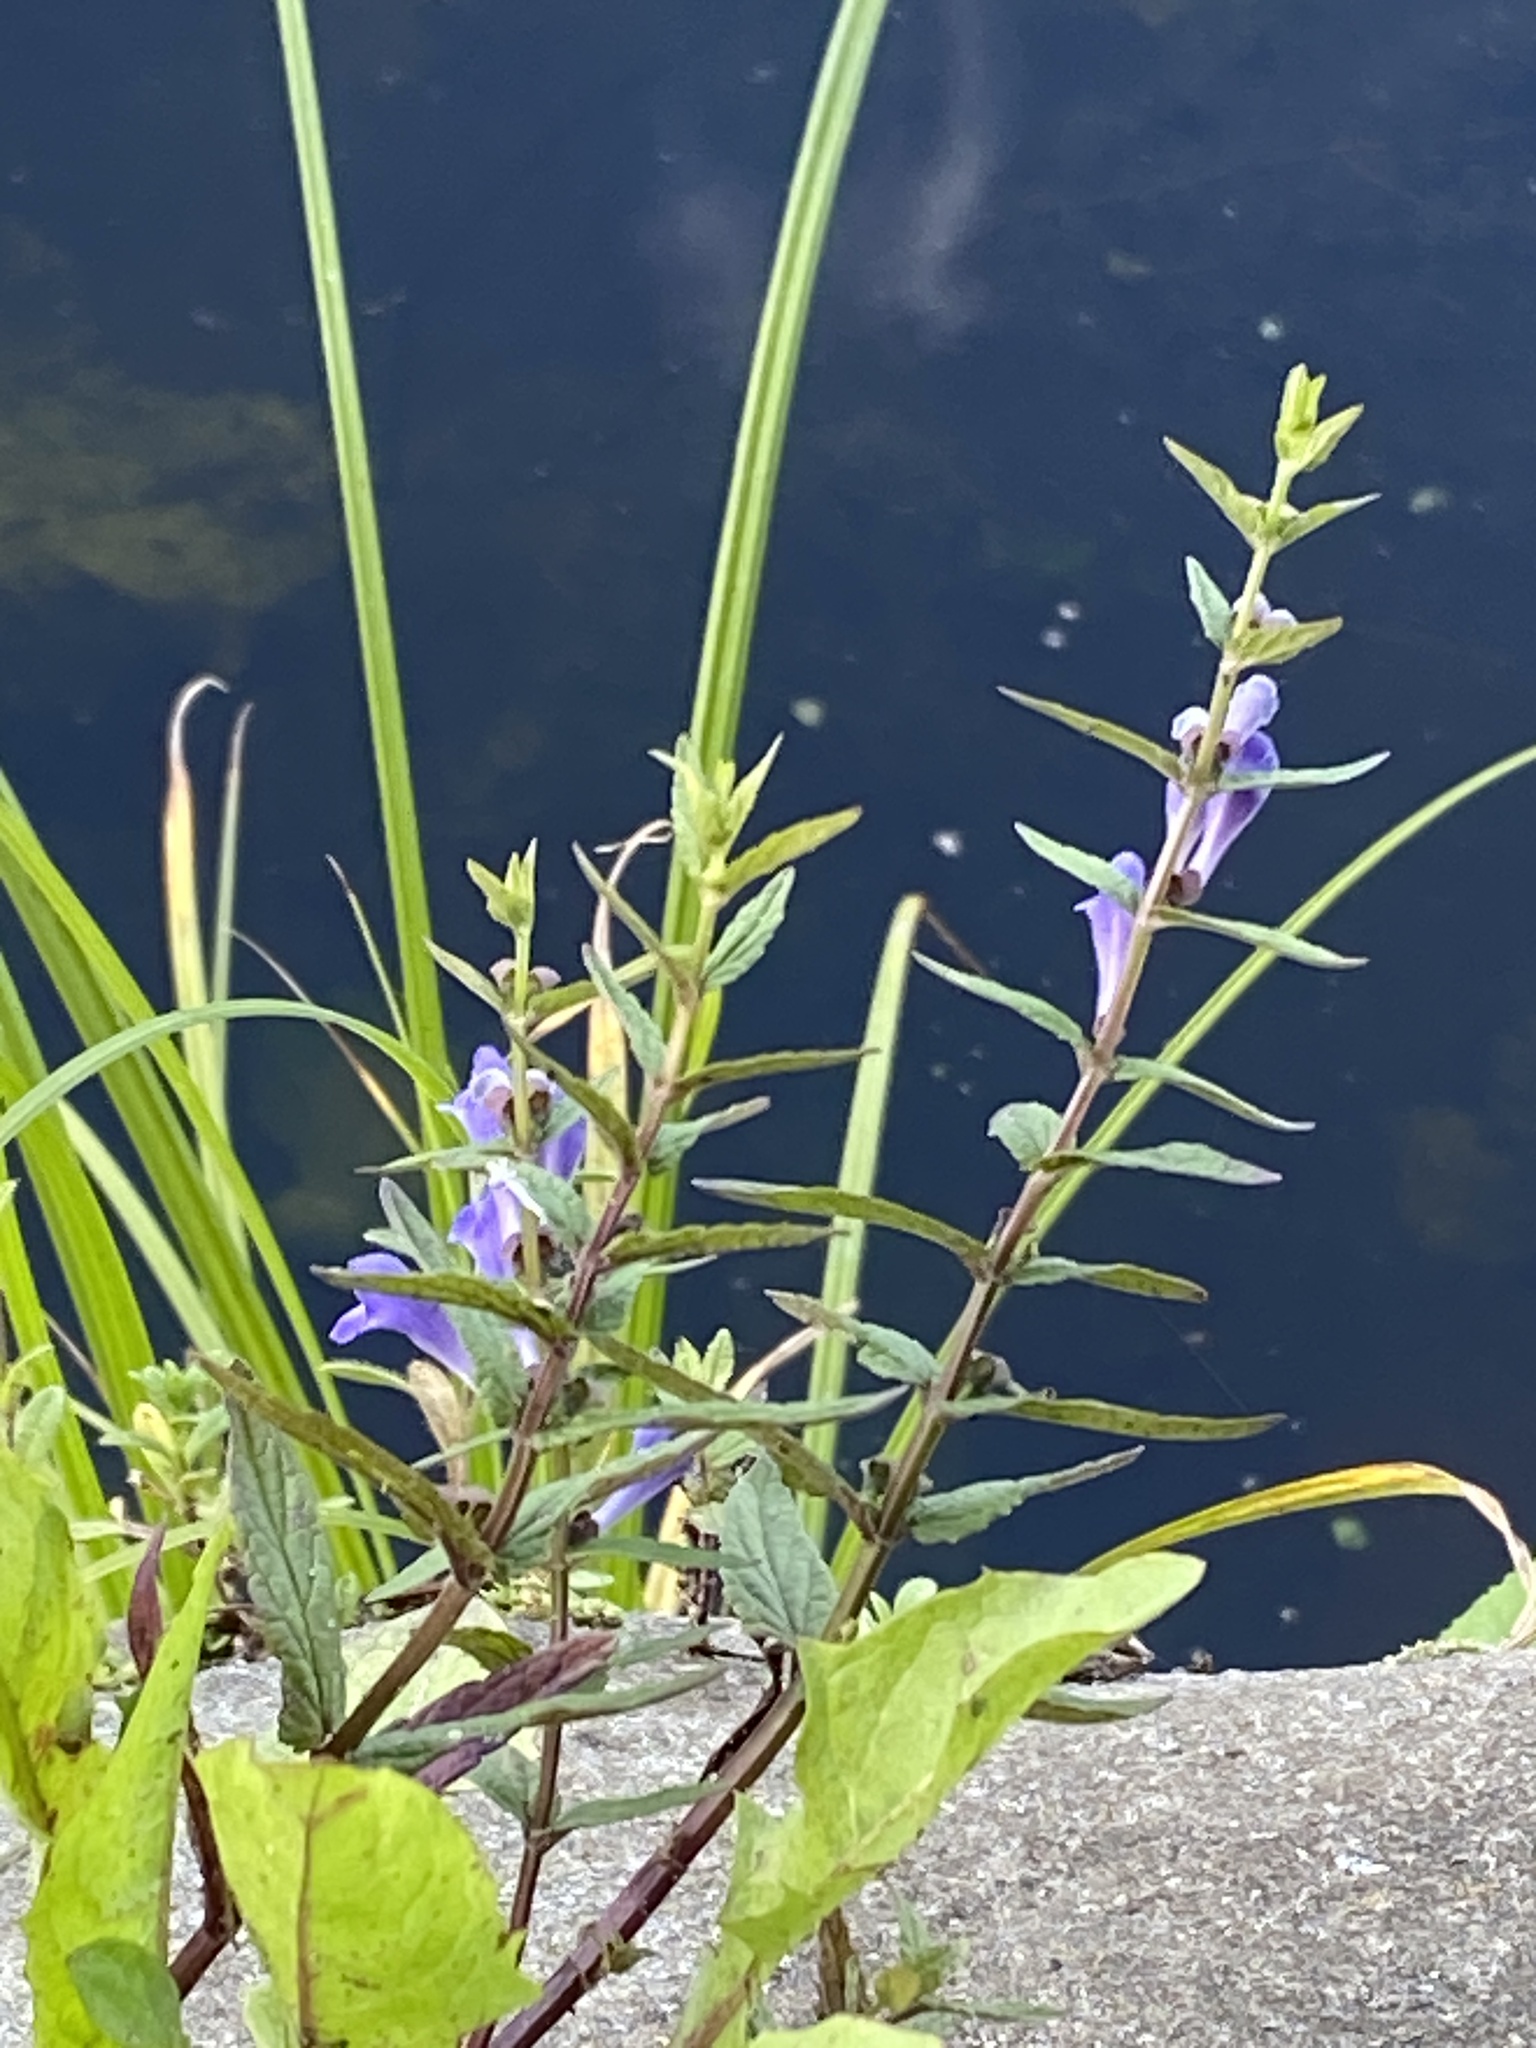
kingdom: Plantae
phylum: Tracheophyta
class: Magnoliopsida
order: Lamiales
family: Lamiaceae
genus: Scutellaria
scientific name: Scutellaria galericulata
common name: Skullcap
